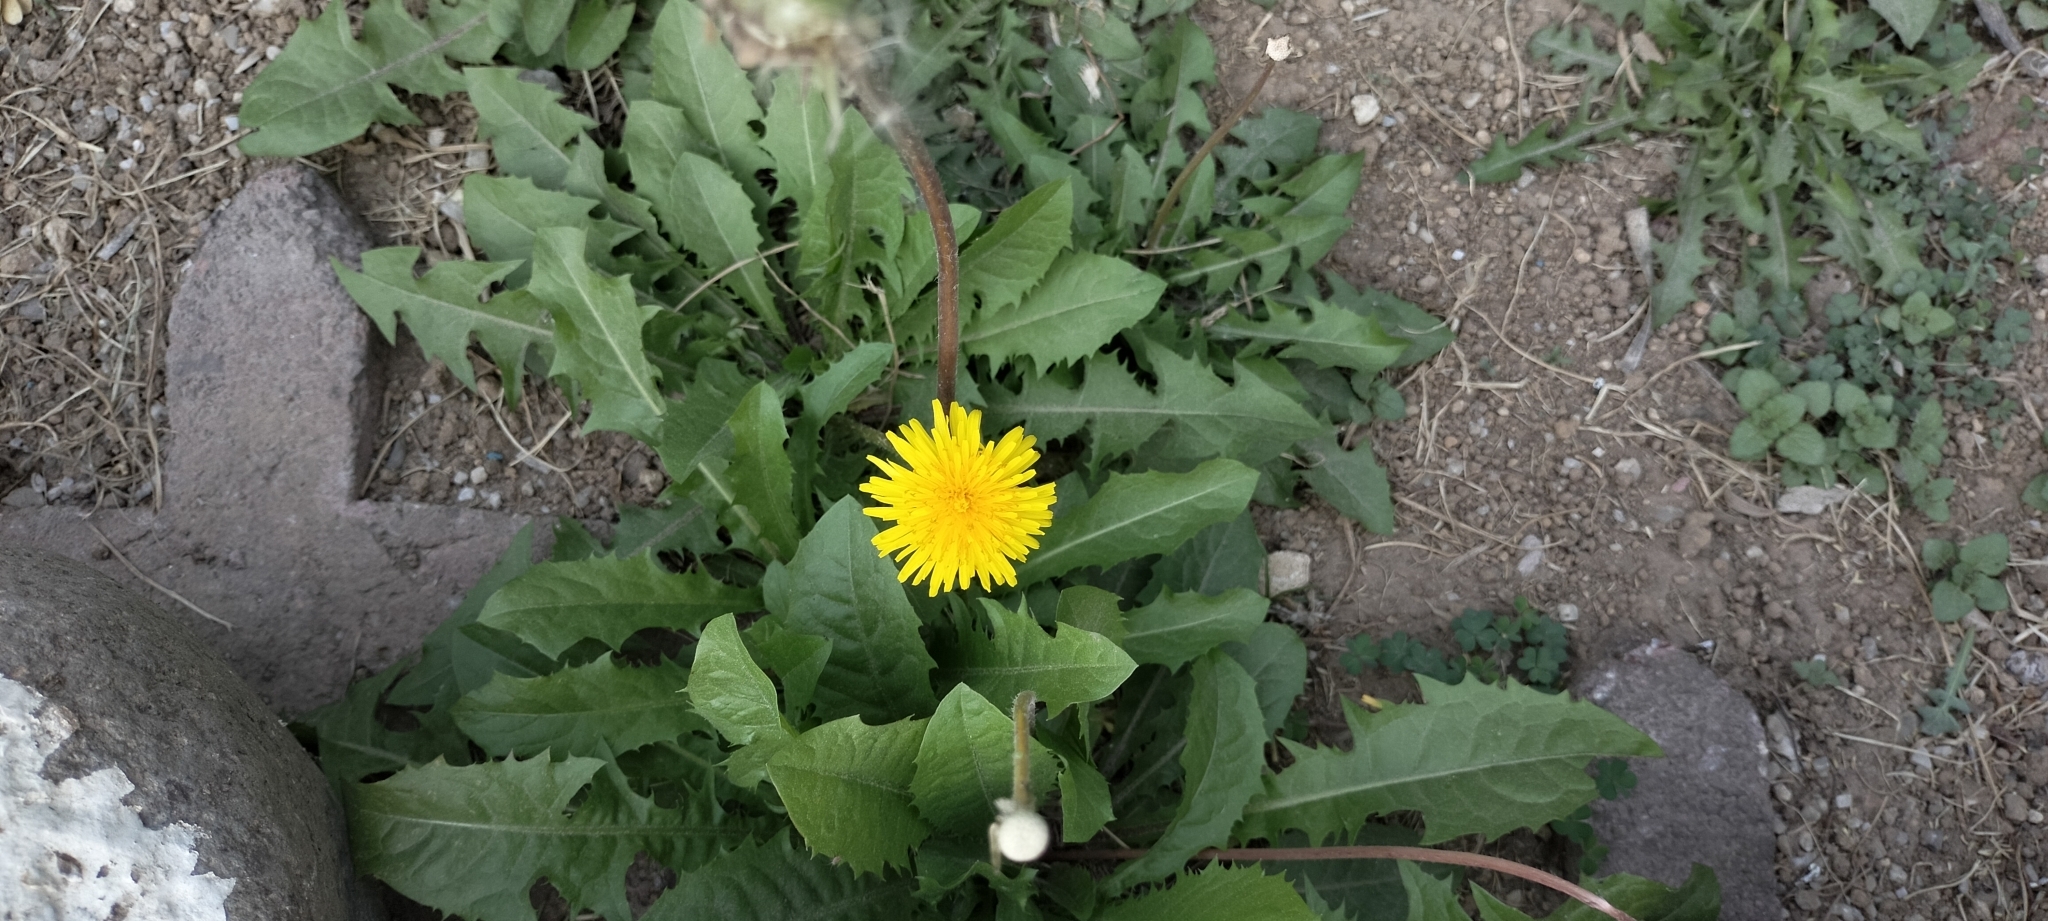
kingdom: Plantae
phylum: Tracheophyta
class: Magnoliopsida
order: Asterales
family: Asteraceae
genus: Taraxacum
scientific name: Taraxacum officinale
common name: Common dandelion
